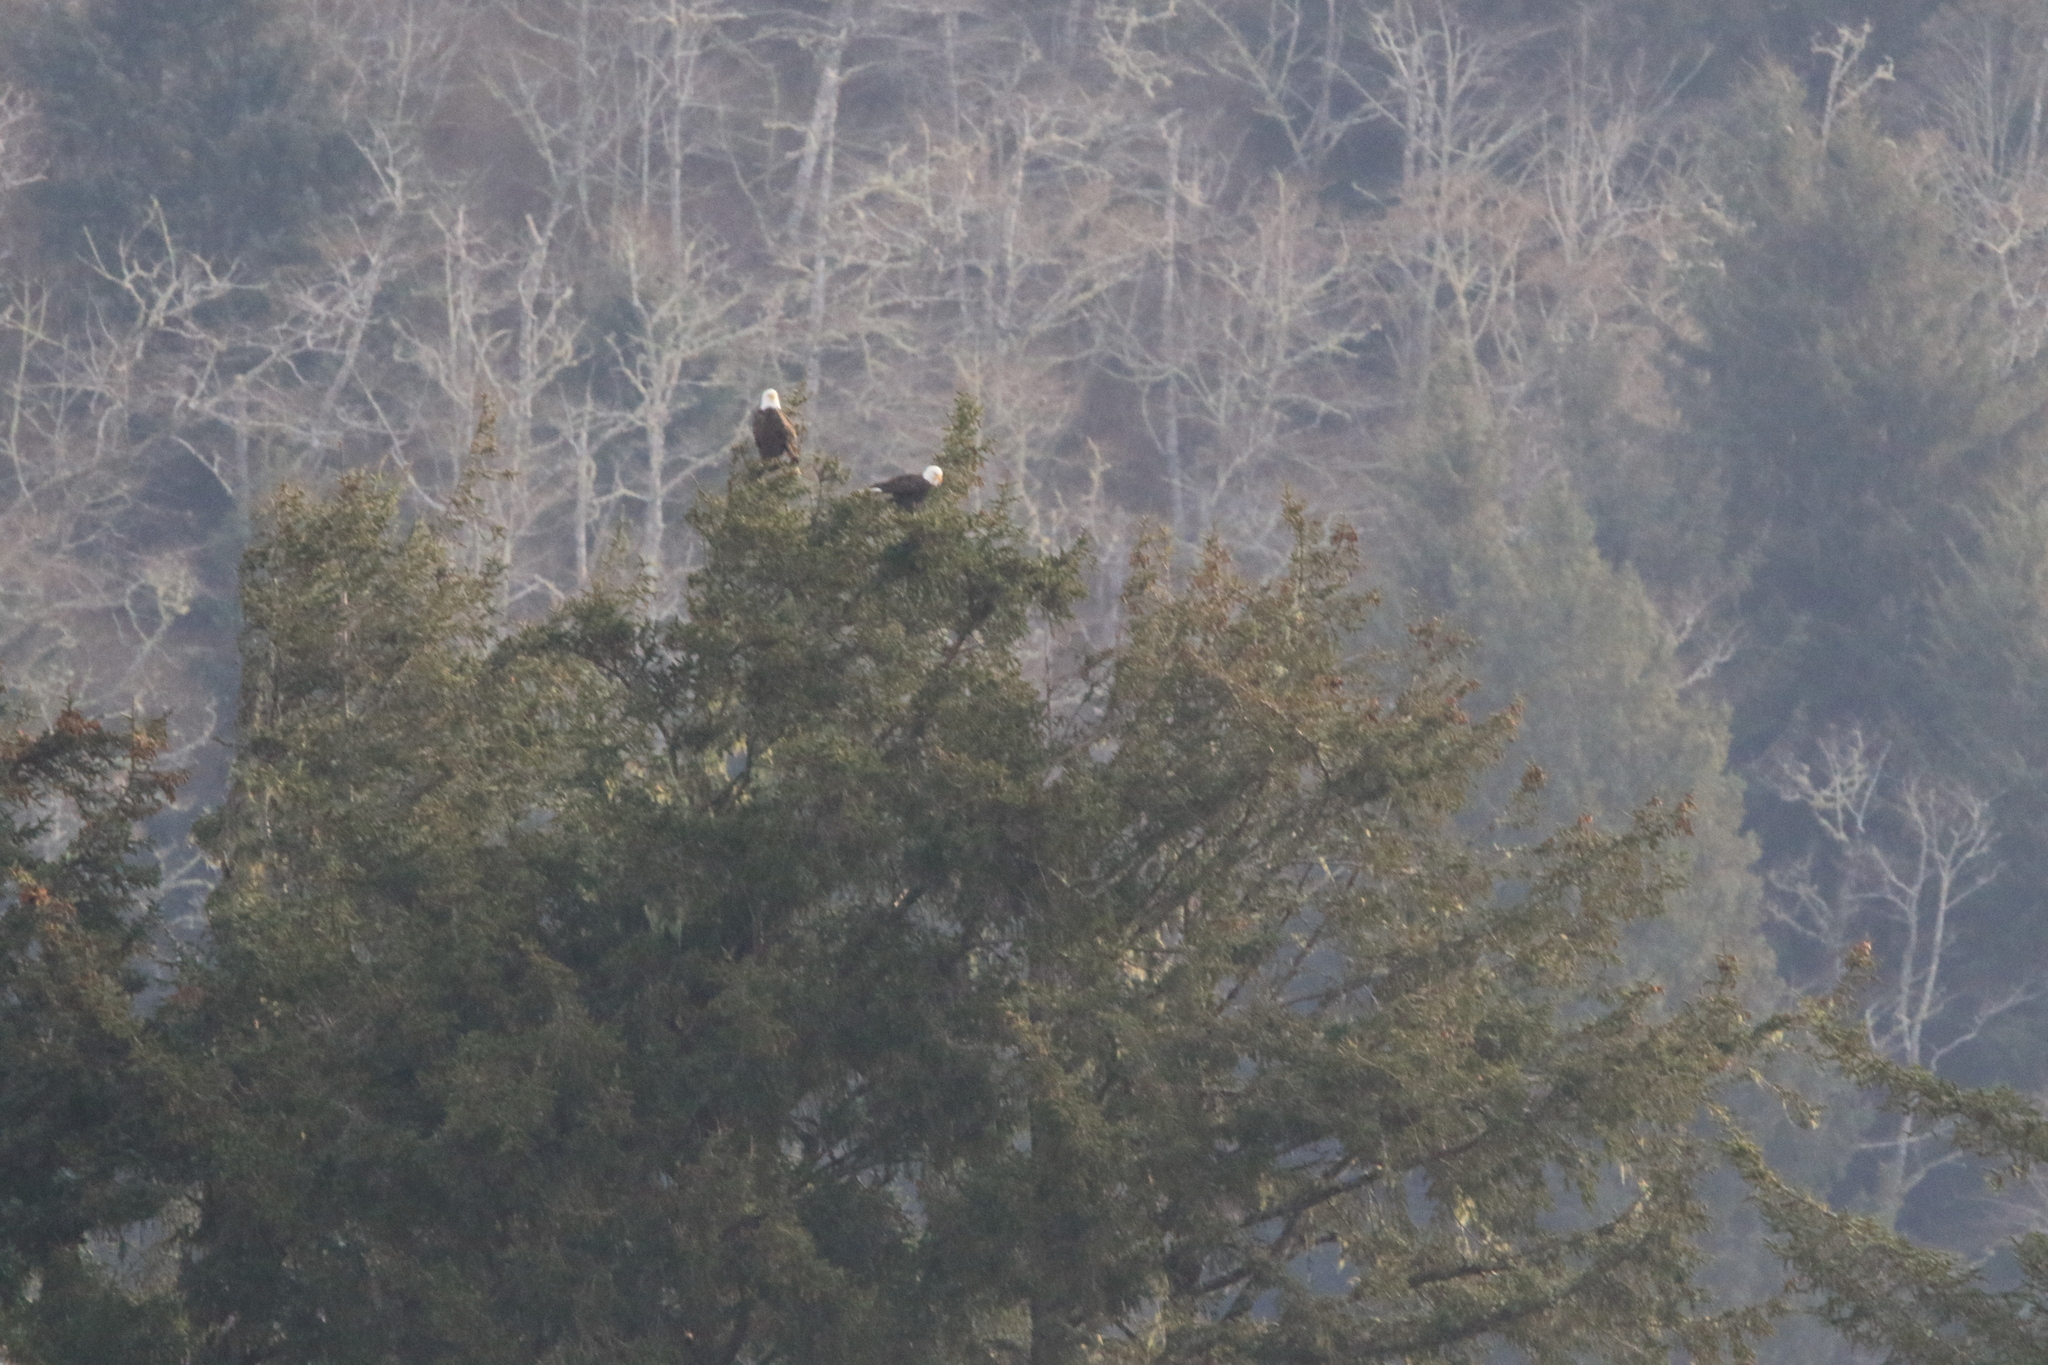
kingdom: Animalia
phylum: Chordata
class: Aves
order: Accipitriformes
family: Accipitridae
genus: Haliaeetus
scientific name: Haliaeetus leucocephalus
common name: Bald eagle
